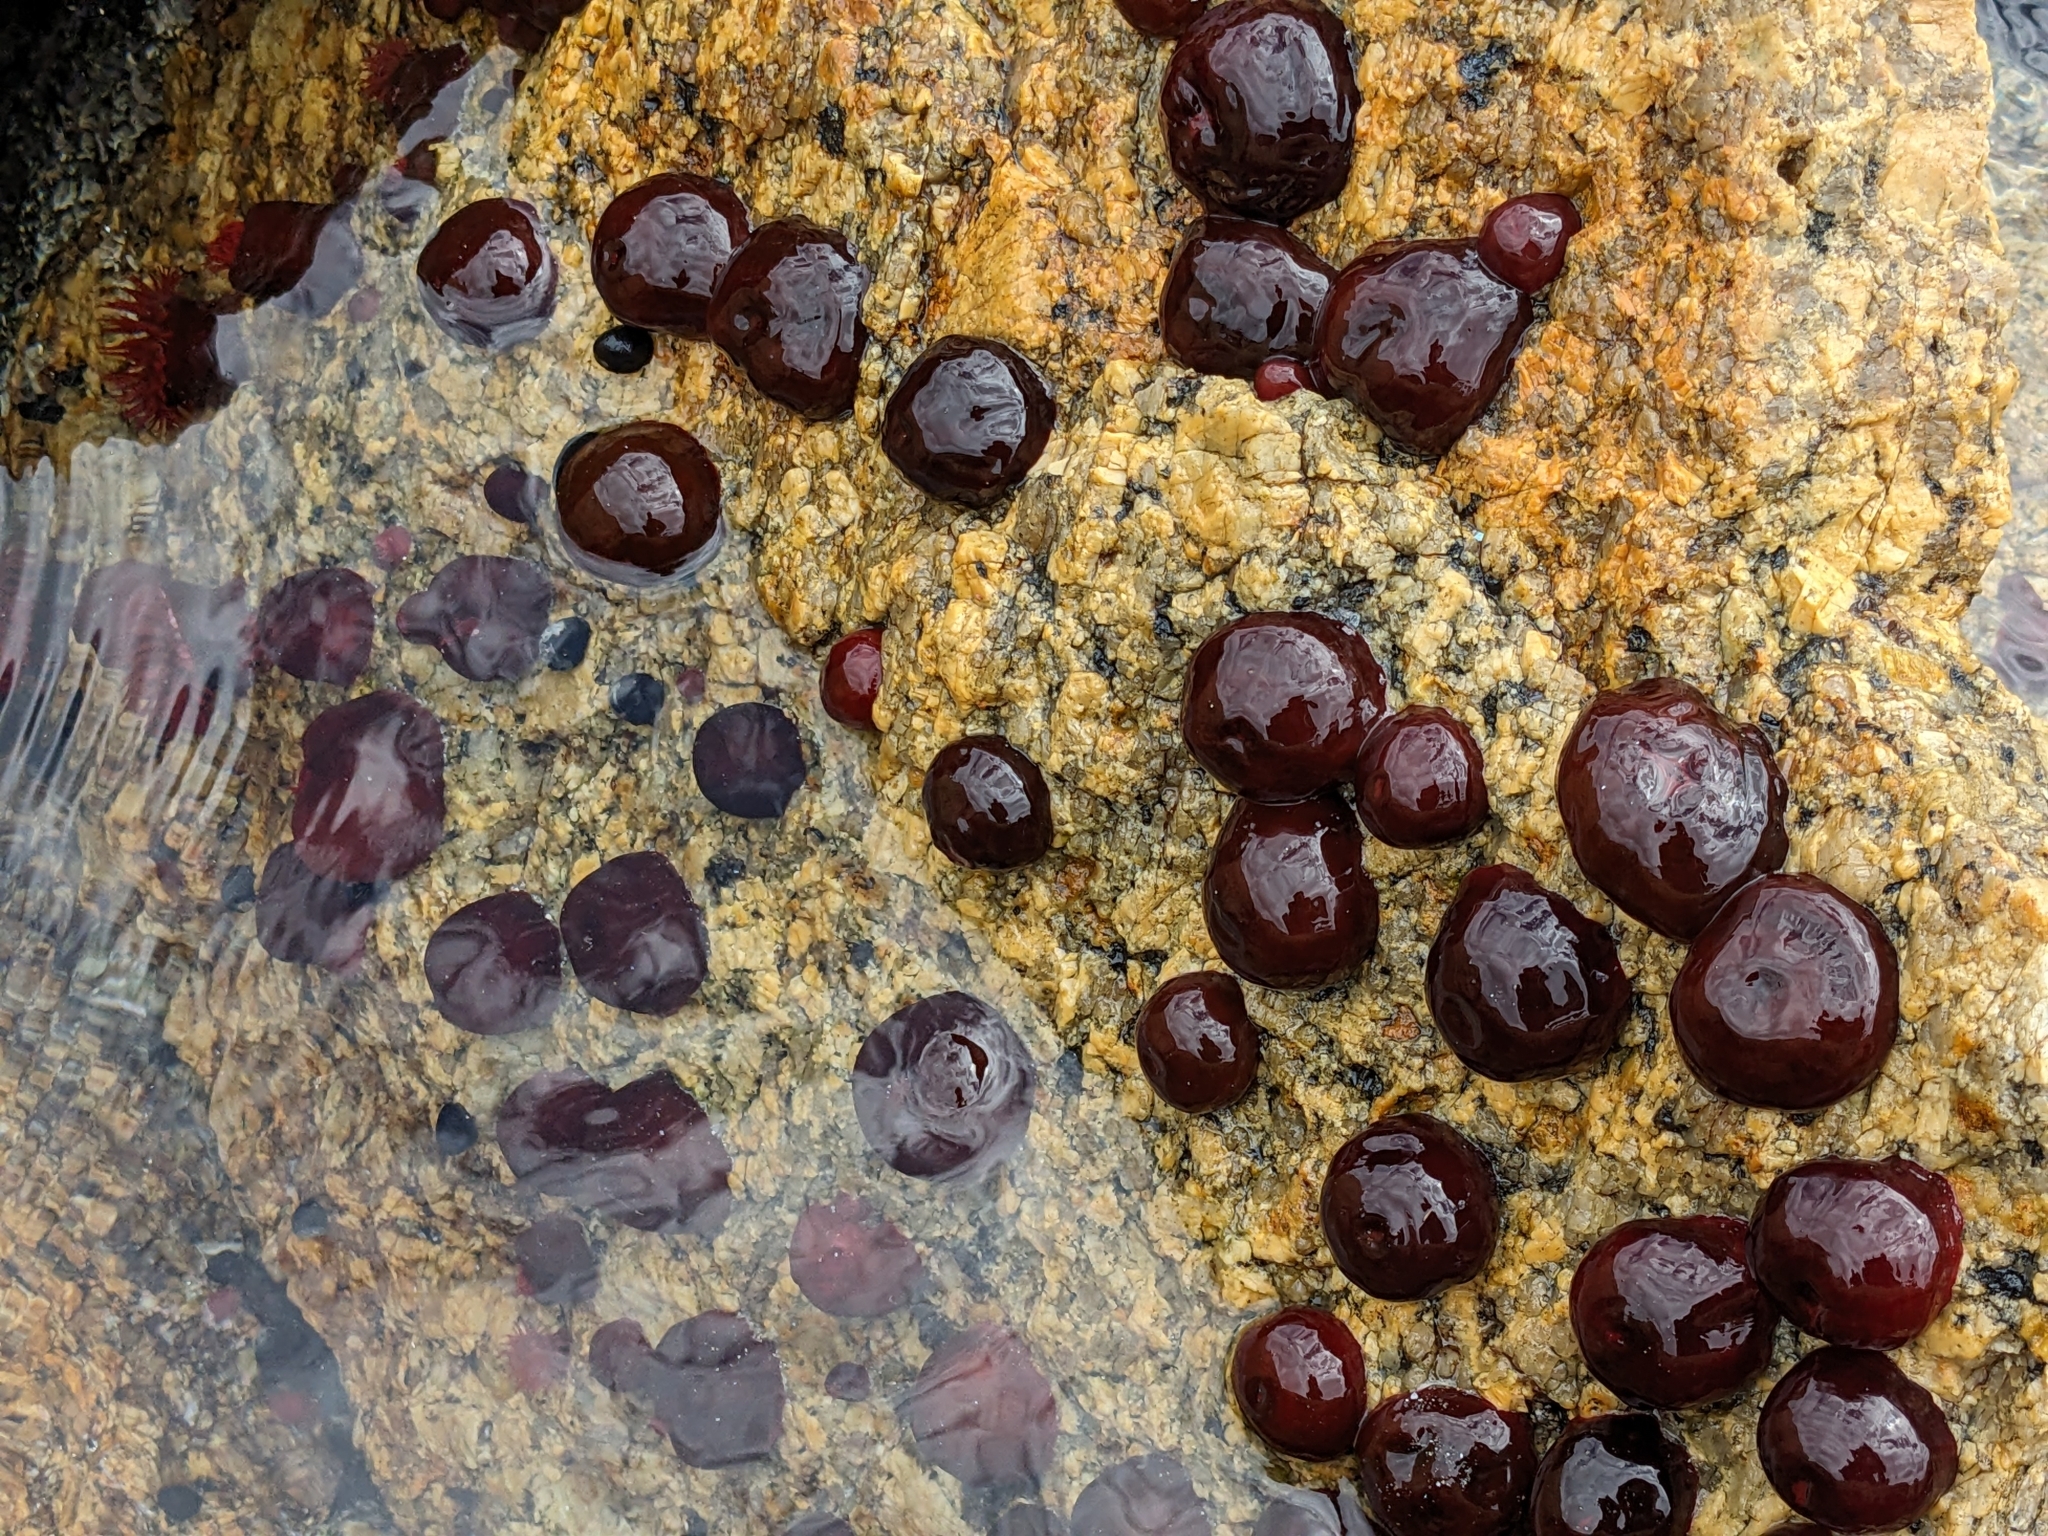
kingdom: Animalia
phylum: Cnidaria
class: Anthozoa
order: Actiniaria
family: Actiniidae
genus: Actinia
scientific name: Actinia tenebrosa
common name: Waratah anemone
